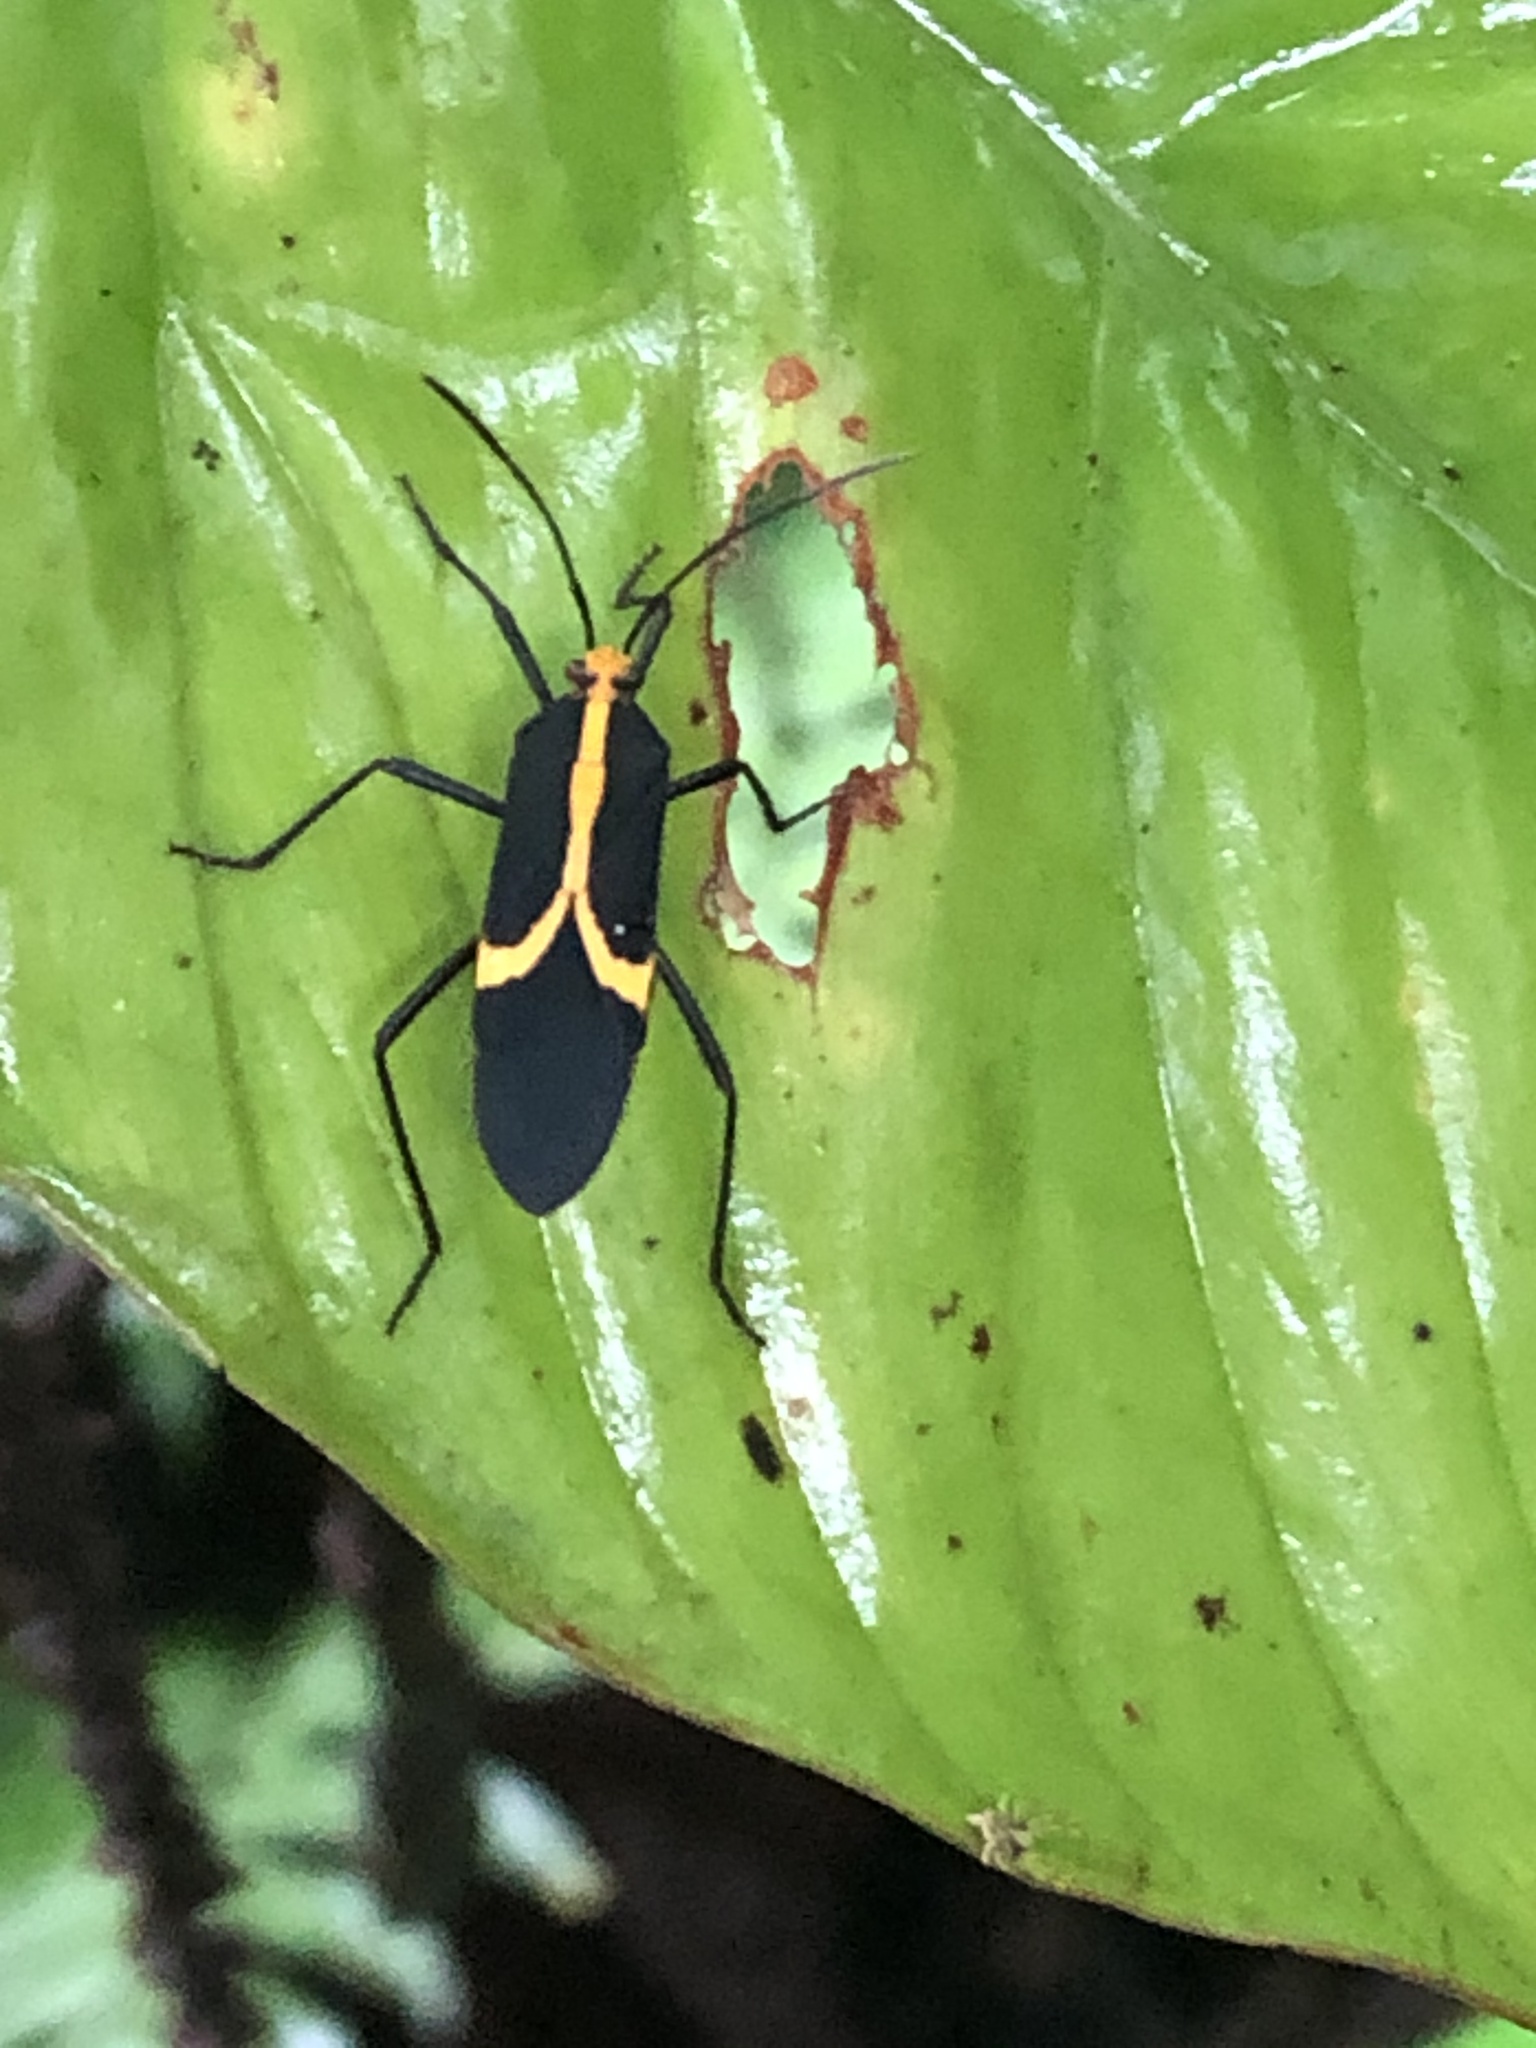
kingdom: Animalia
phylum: Arthropoda
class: Insecta
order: Hemiptera
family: Coreidae
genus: Hypselonotus
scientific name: Hypselonotus linea
